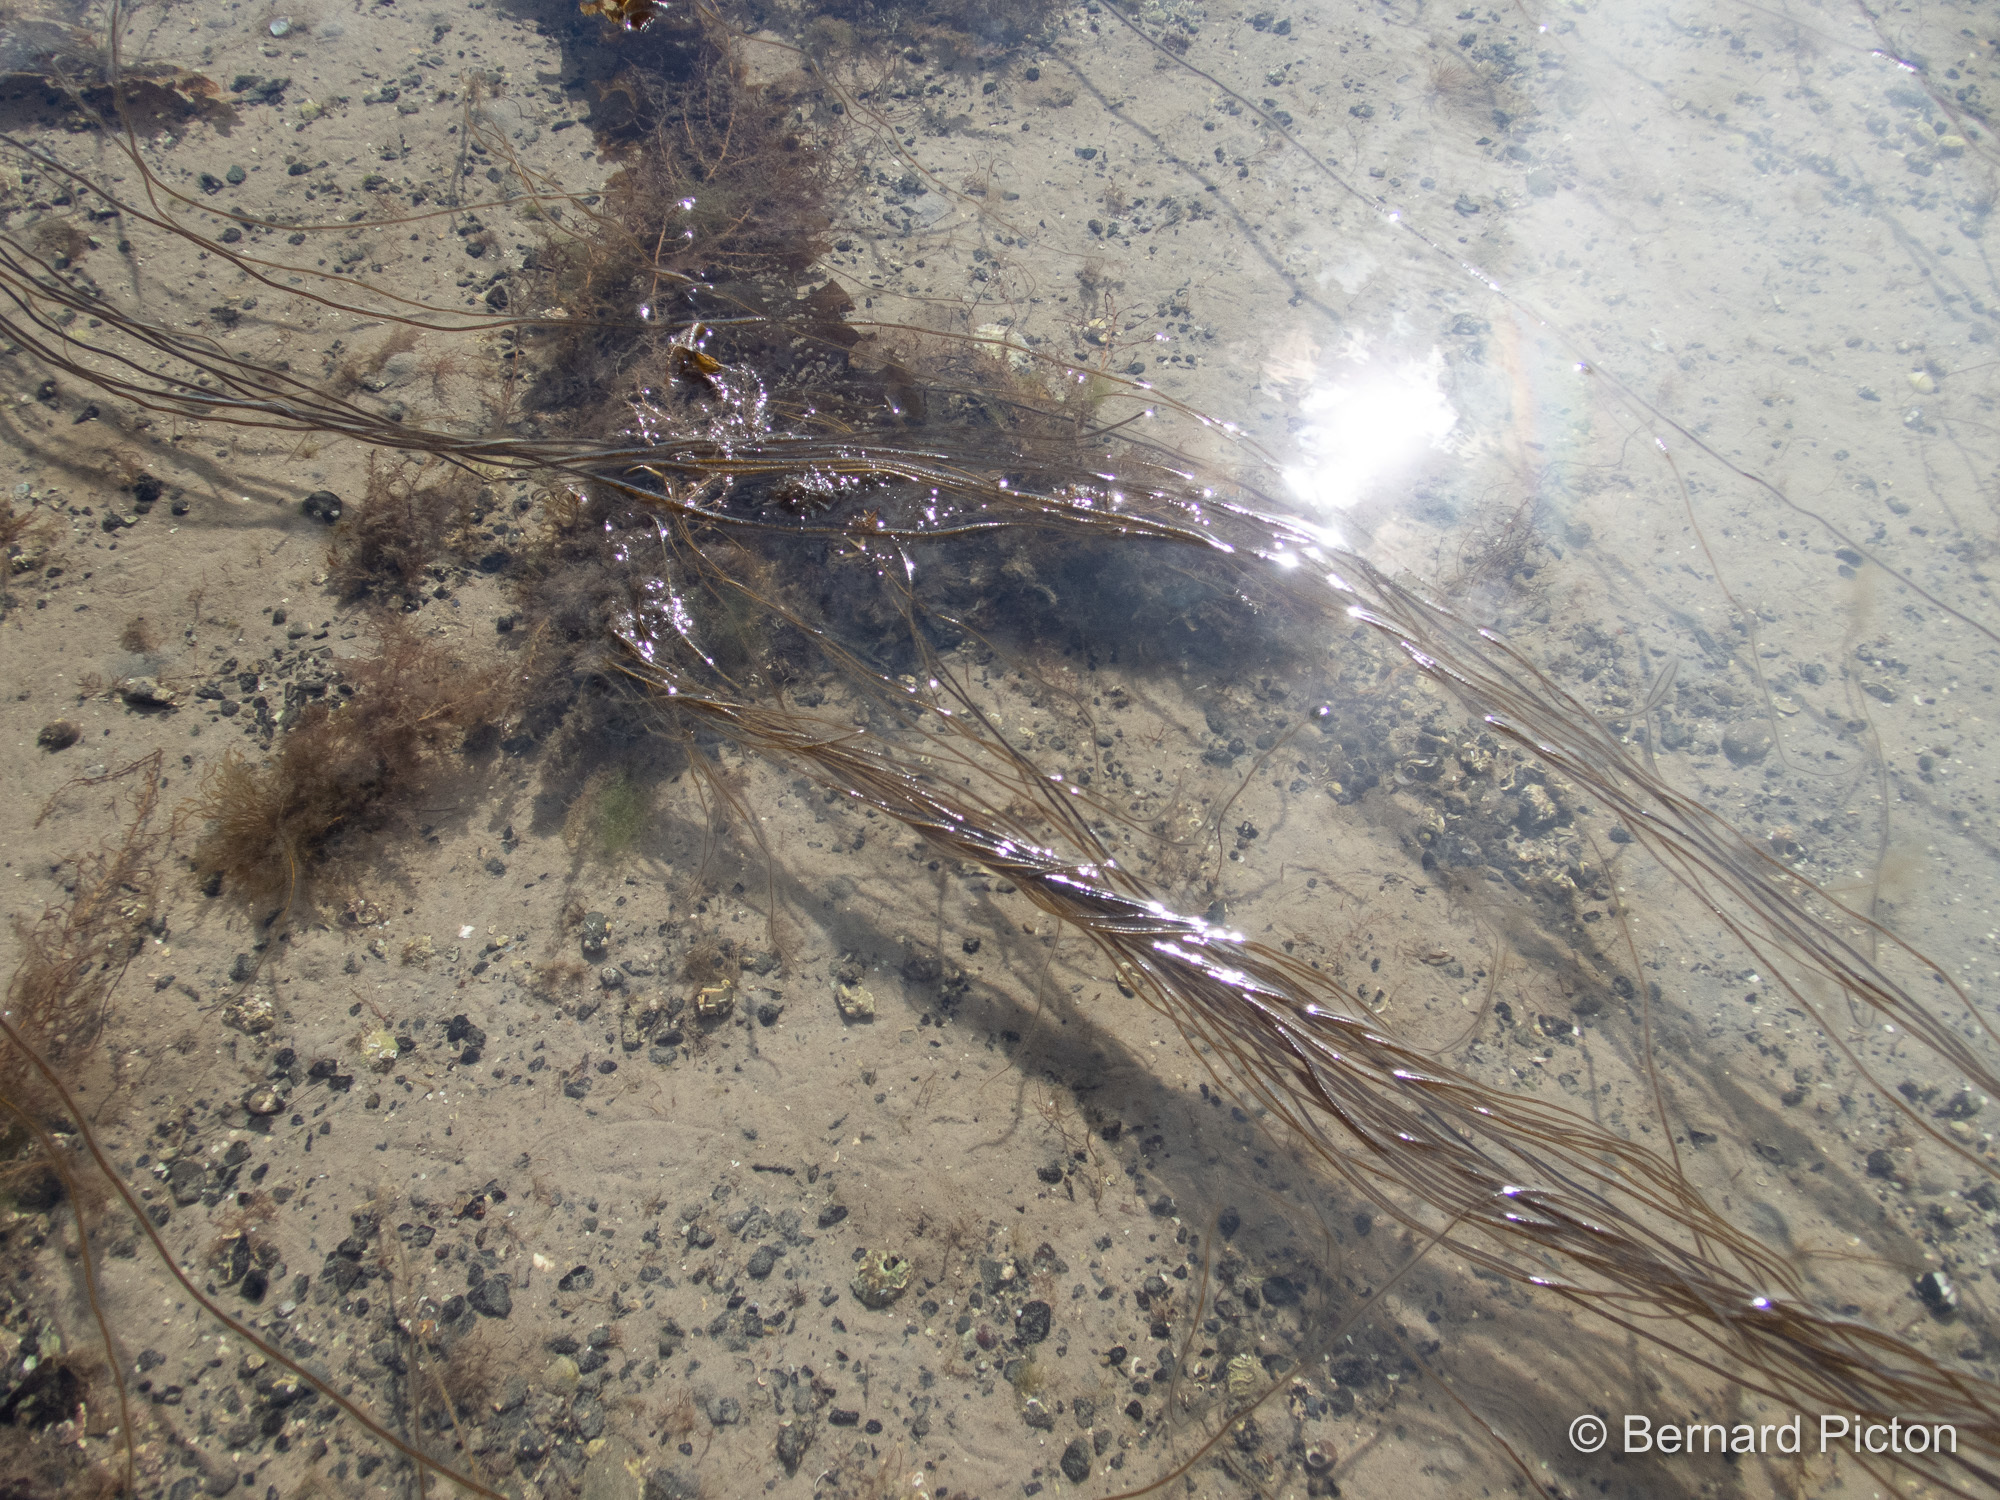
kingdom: Chromista
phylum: Ochrophyta
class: Phaeophyceae
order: Laminariales
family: Chordaceae
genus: Chorda
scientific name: Chorda filum
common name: Mermaid's tresses
